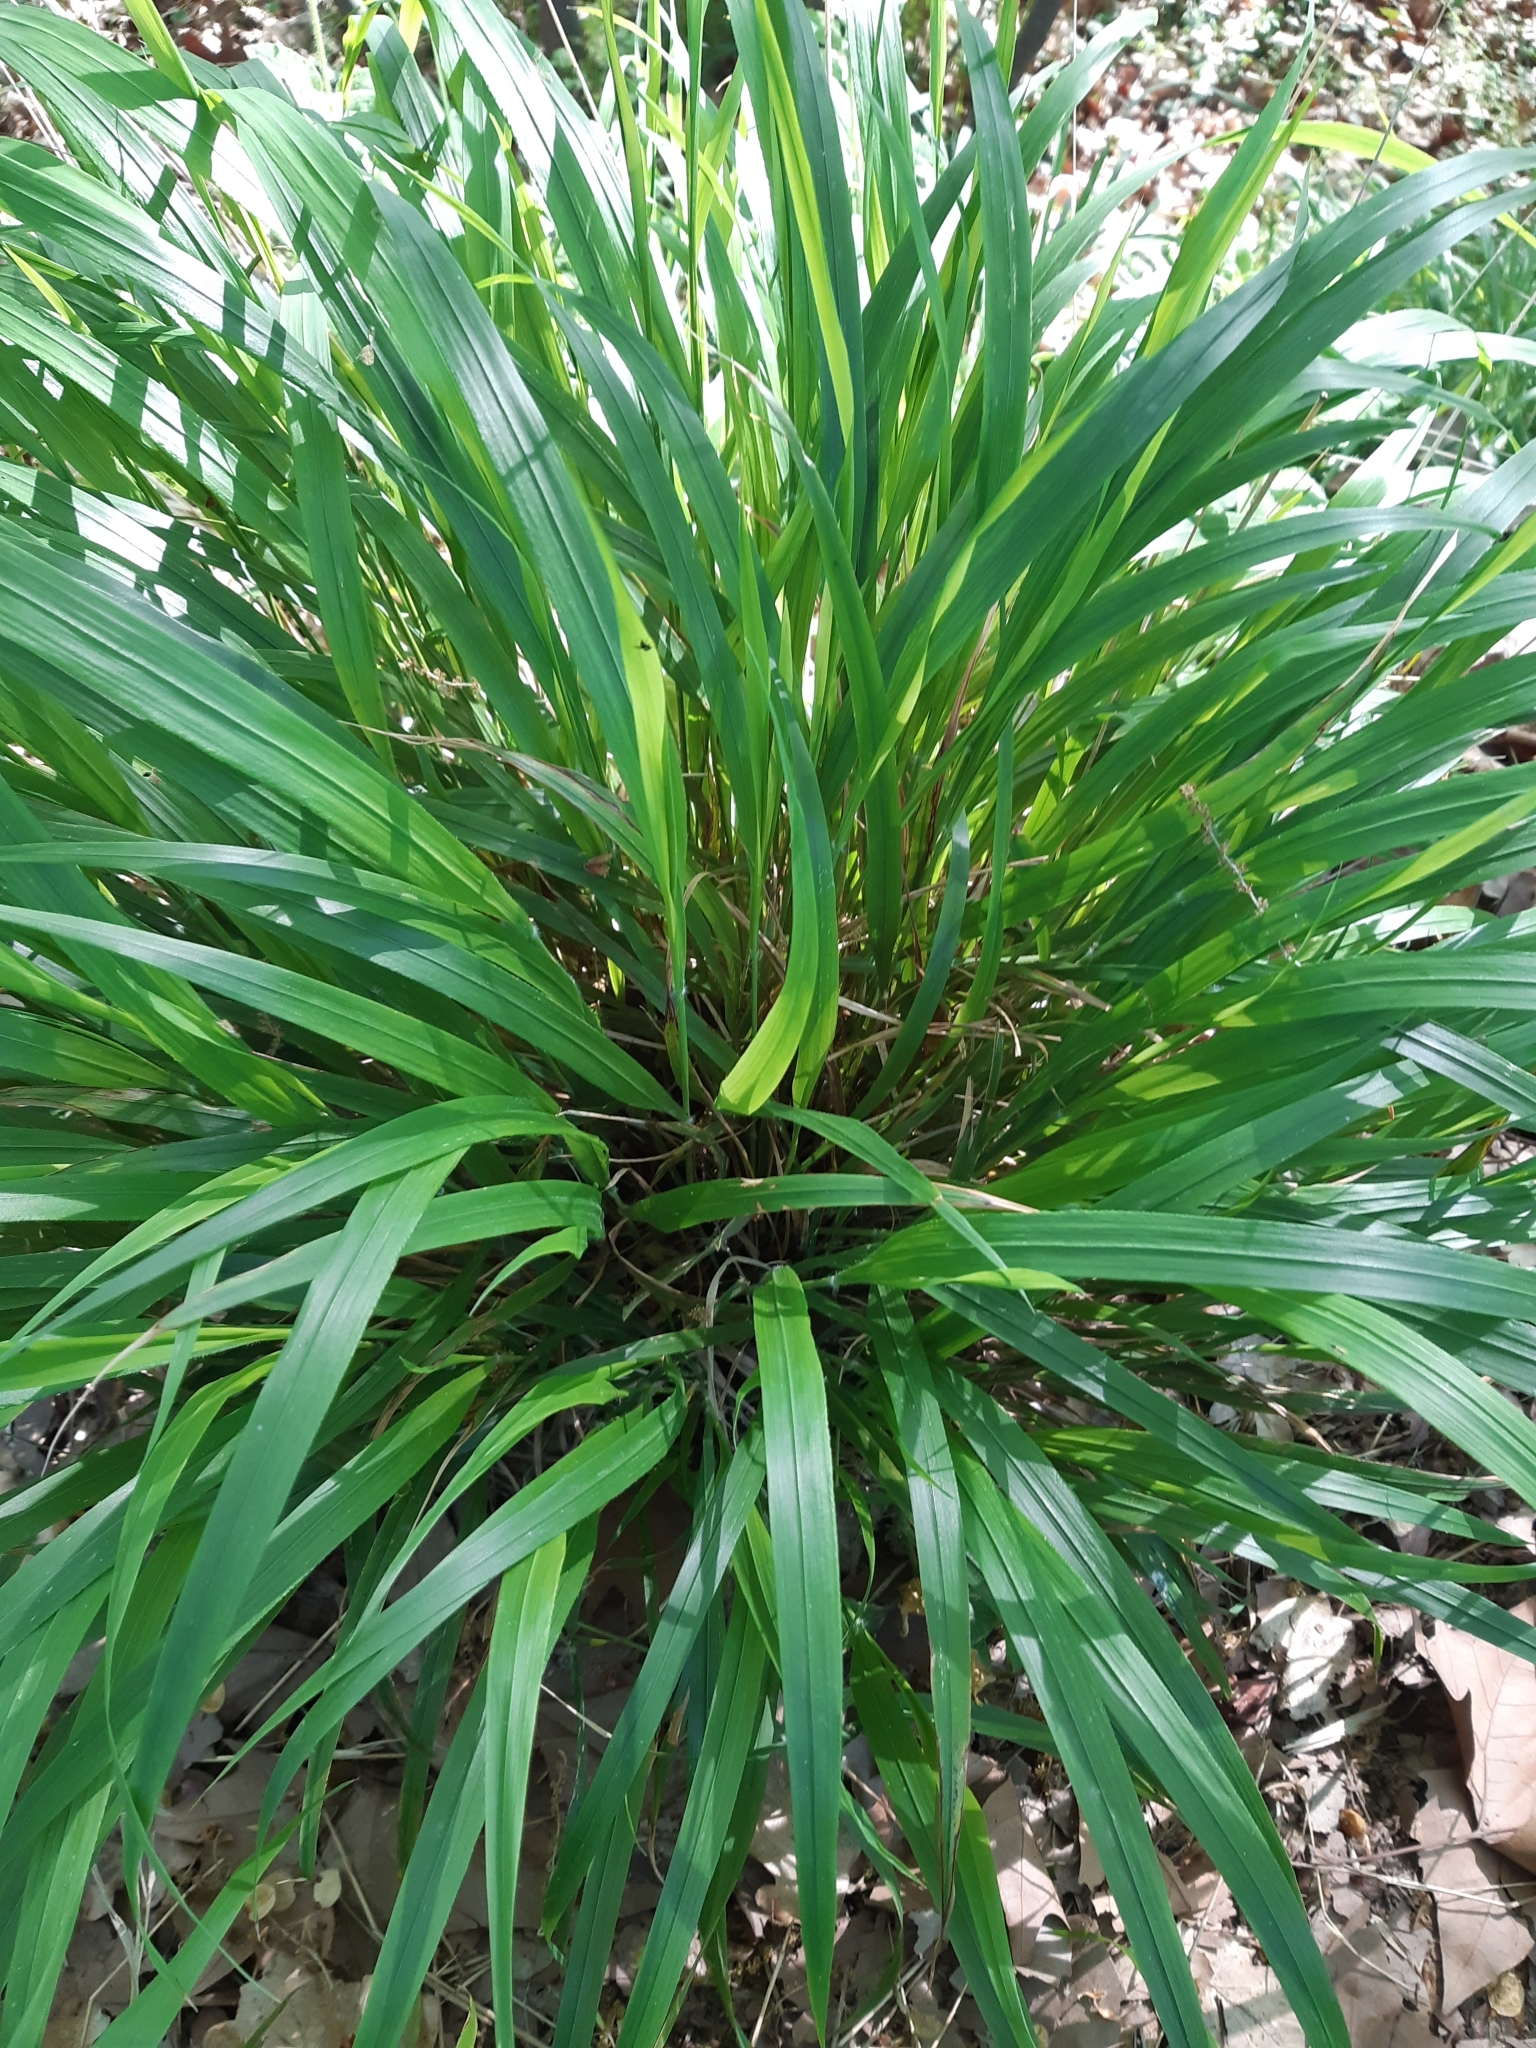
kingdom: Plantae
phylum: Tracheophyta
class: Liliopsida
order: Poales
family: Poaceae
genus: Brachypodium
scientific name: Brachypodium sylvaticum
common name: False-brome
